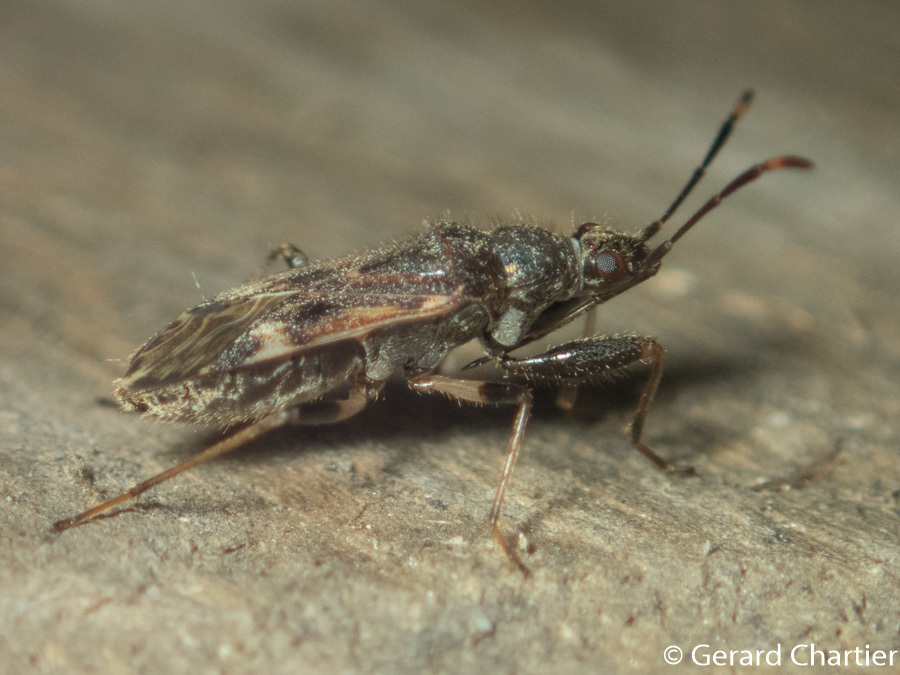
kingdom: Animalia
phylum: Arthropoda
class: Insecta
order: Hemiptera
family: Rhyparochromidae
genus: Horridipamera
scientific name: Horridipamera nietneri
